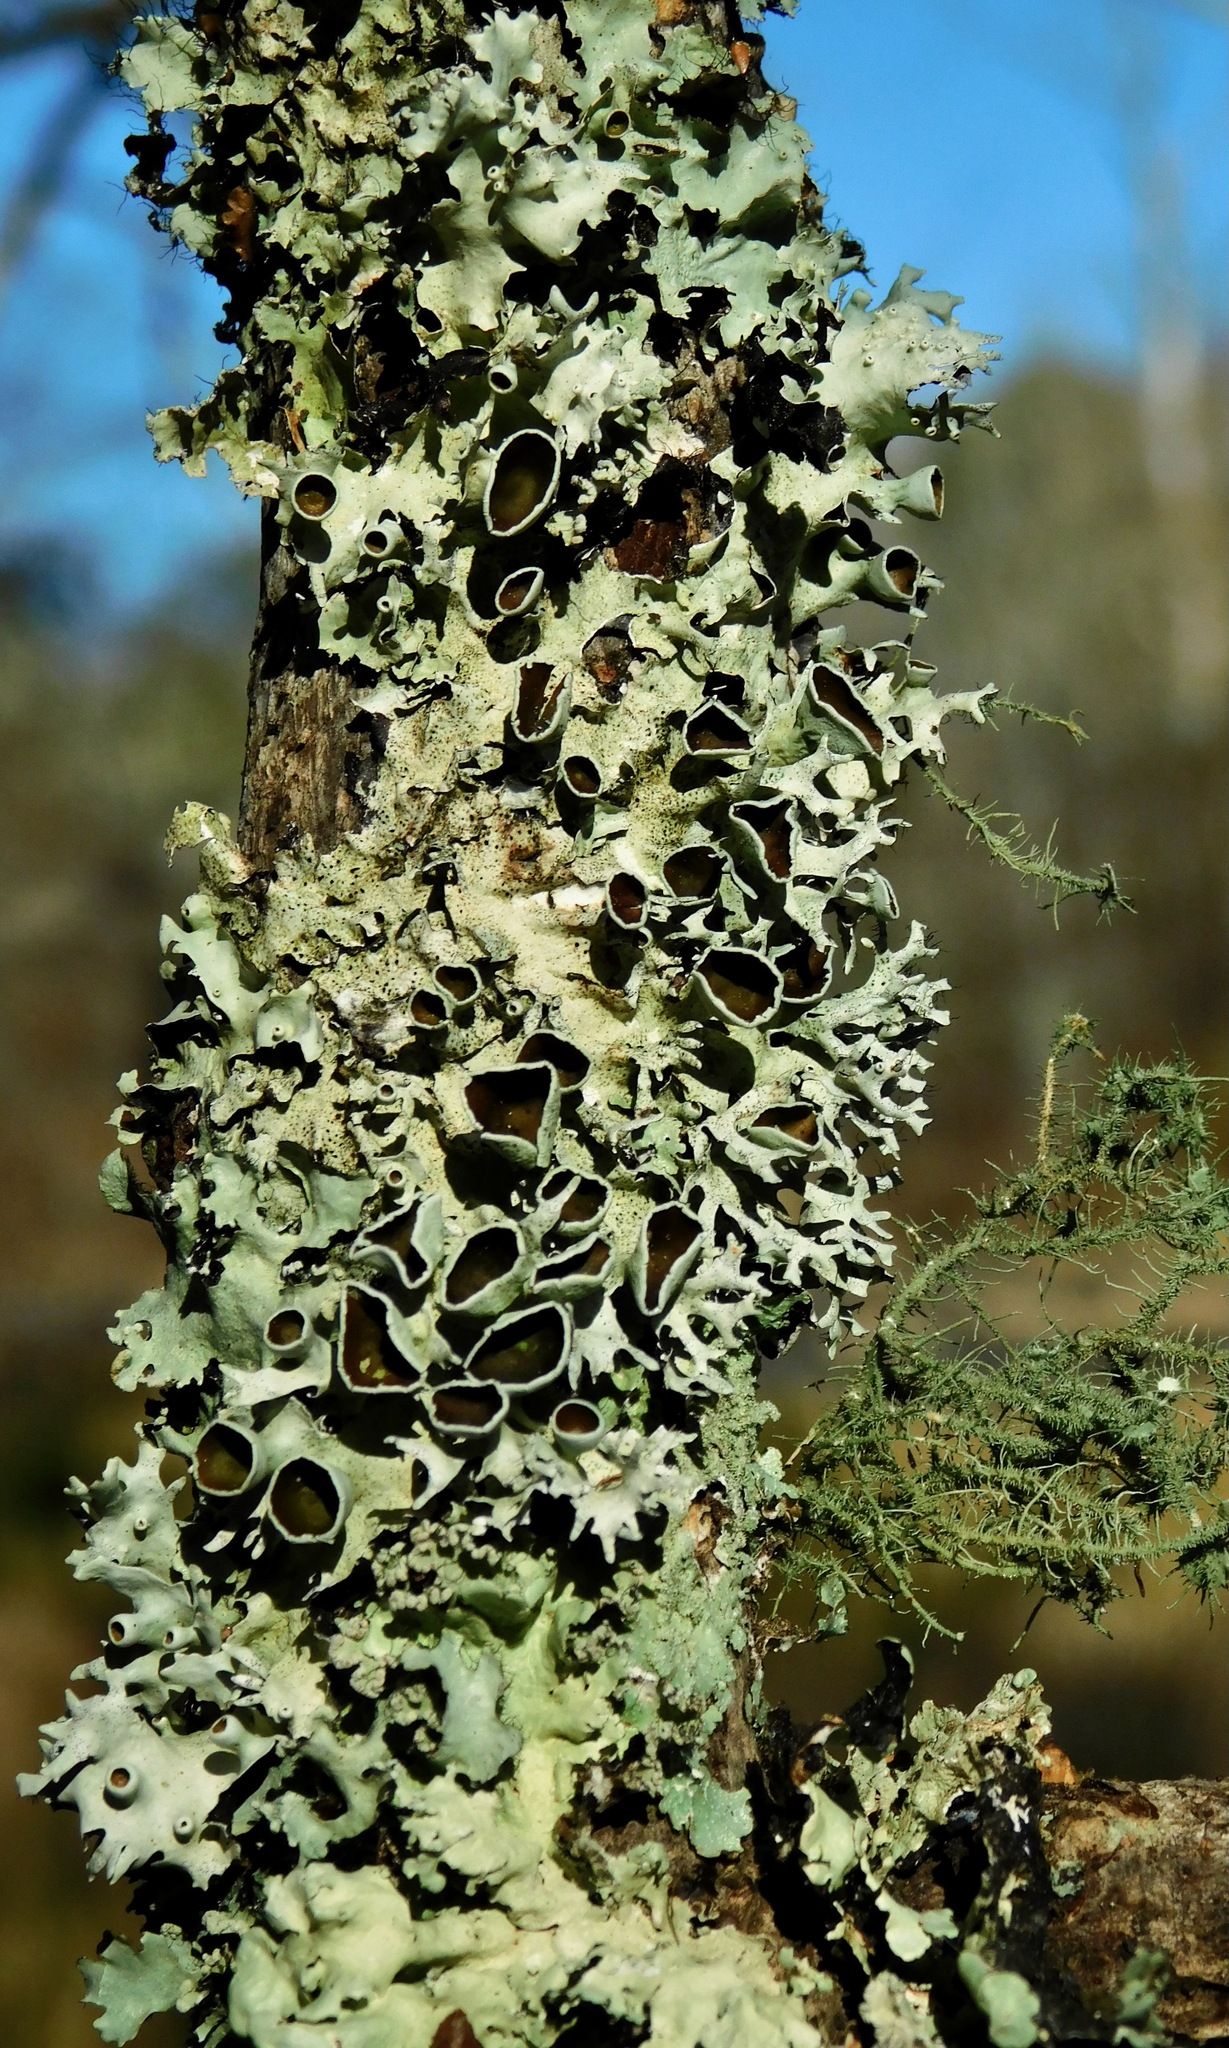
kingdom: Fungi
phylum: Ascomycota
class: Lecanoromycetes
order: Lecanorales
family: Parmeliaceae
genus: Parmotrema
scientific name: Parmotrema cetratum
